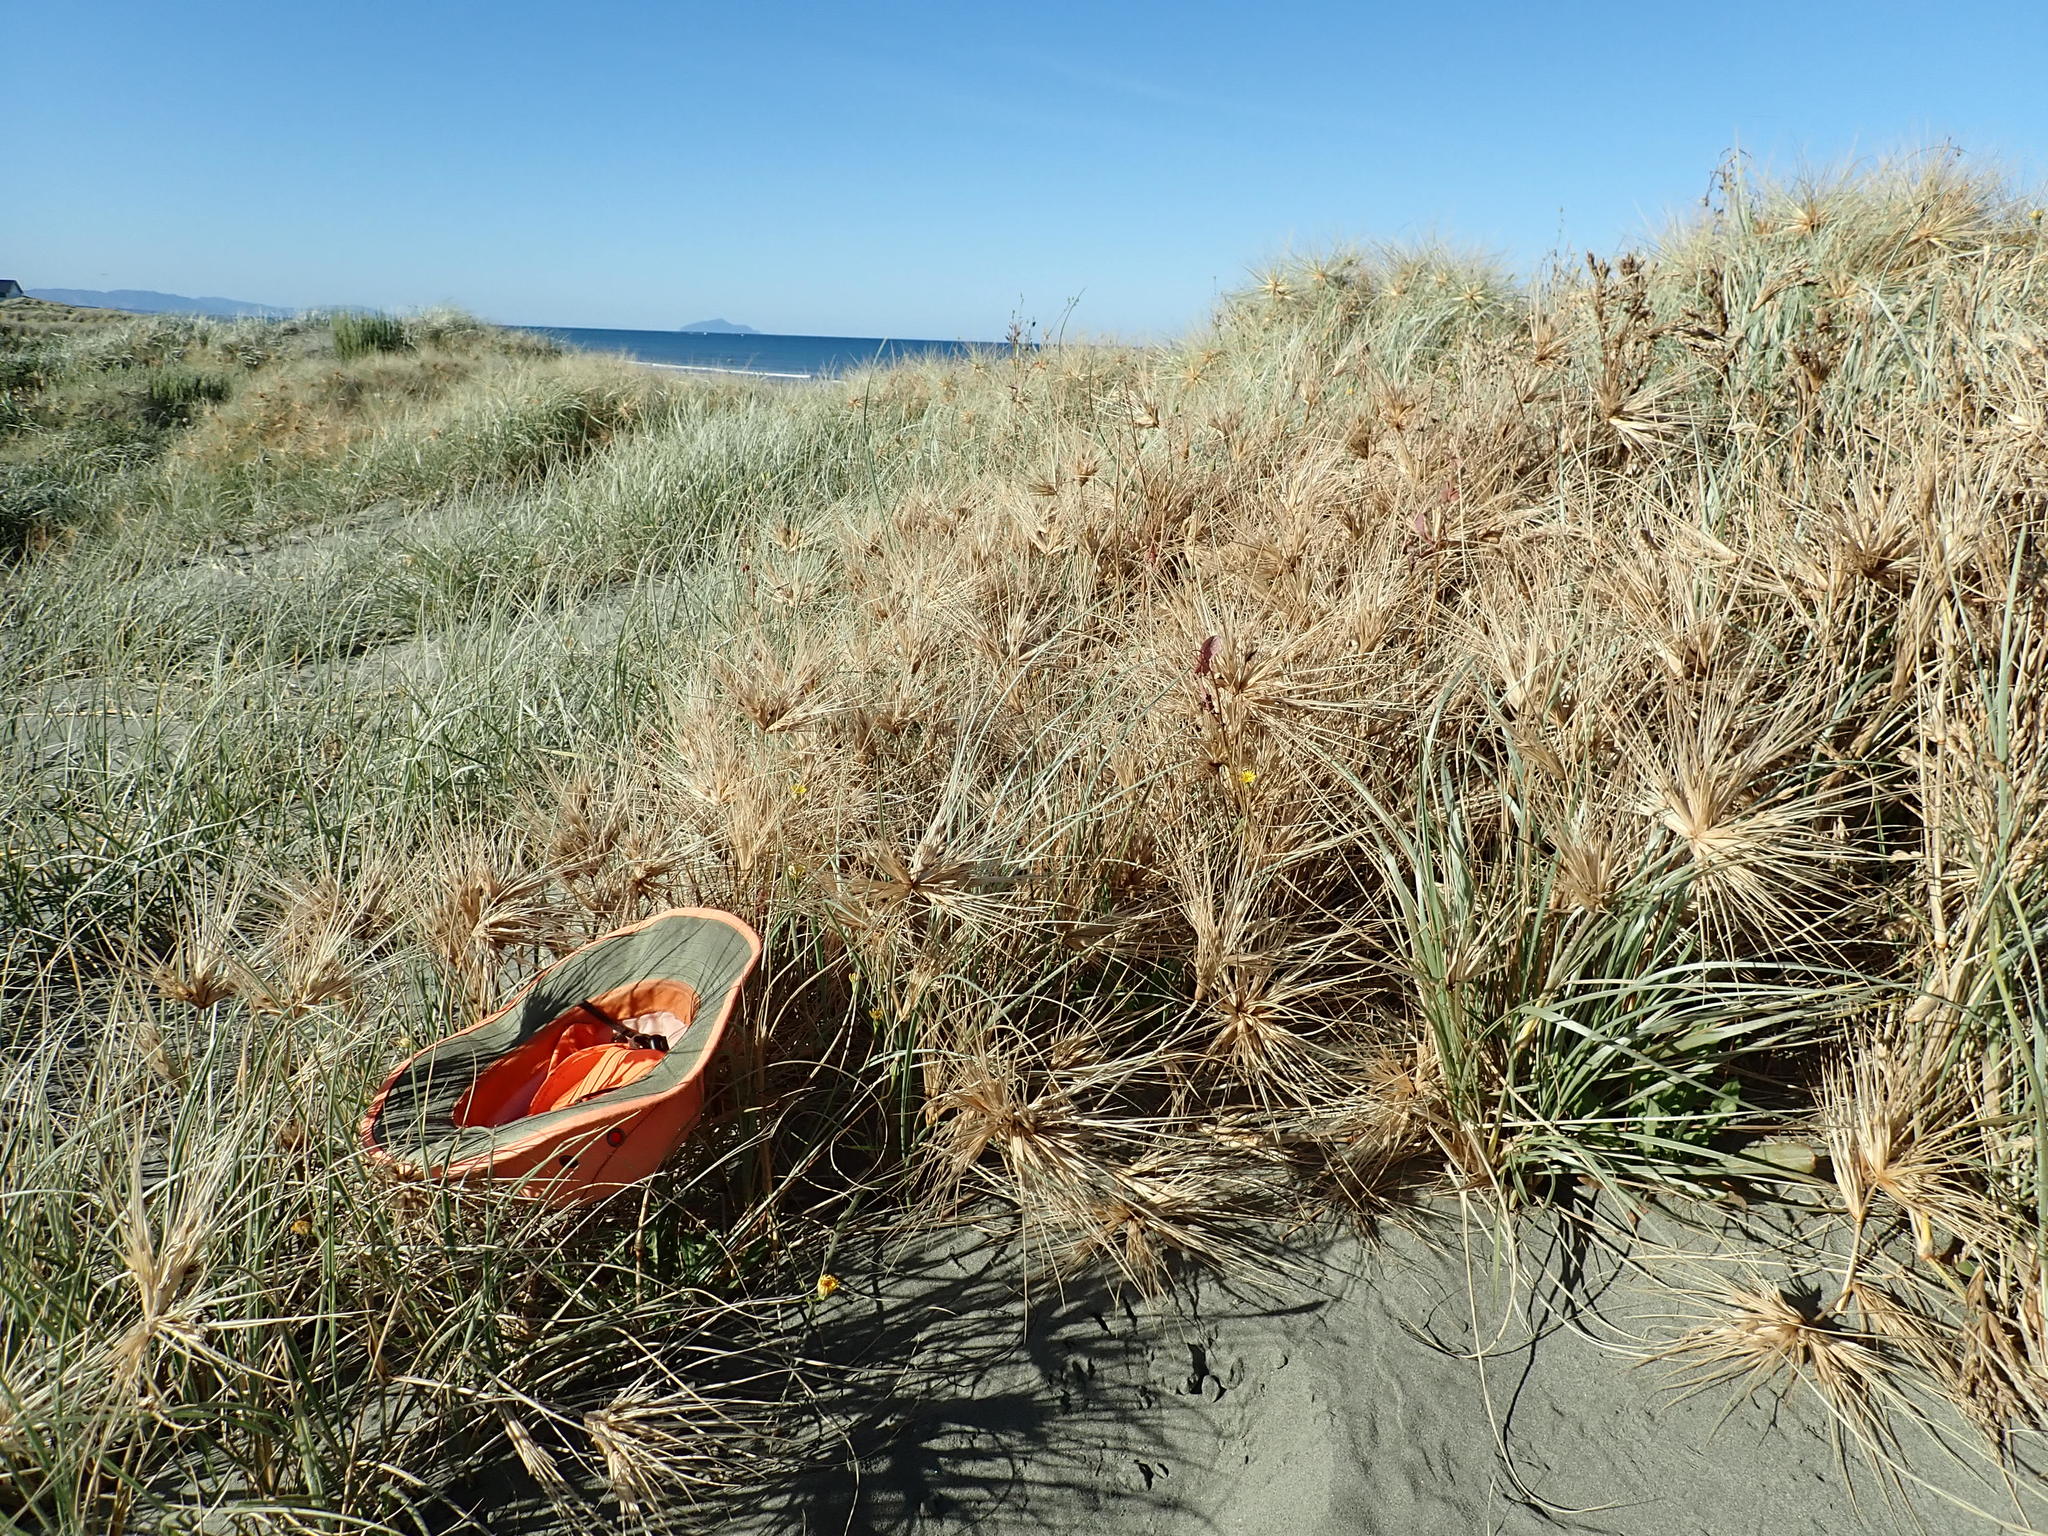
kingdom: Plantae
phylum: Tracheophyta
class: Liliopsida
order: Poales
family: Poaceae
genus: Spinifex
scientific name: Spinifex sericeus
